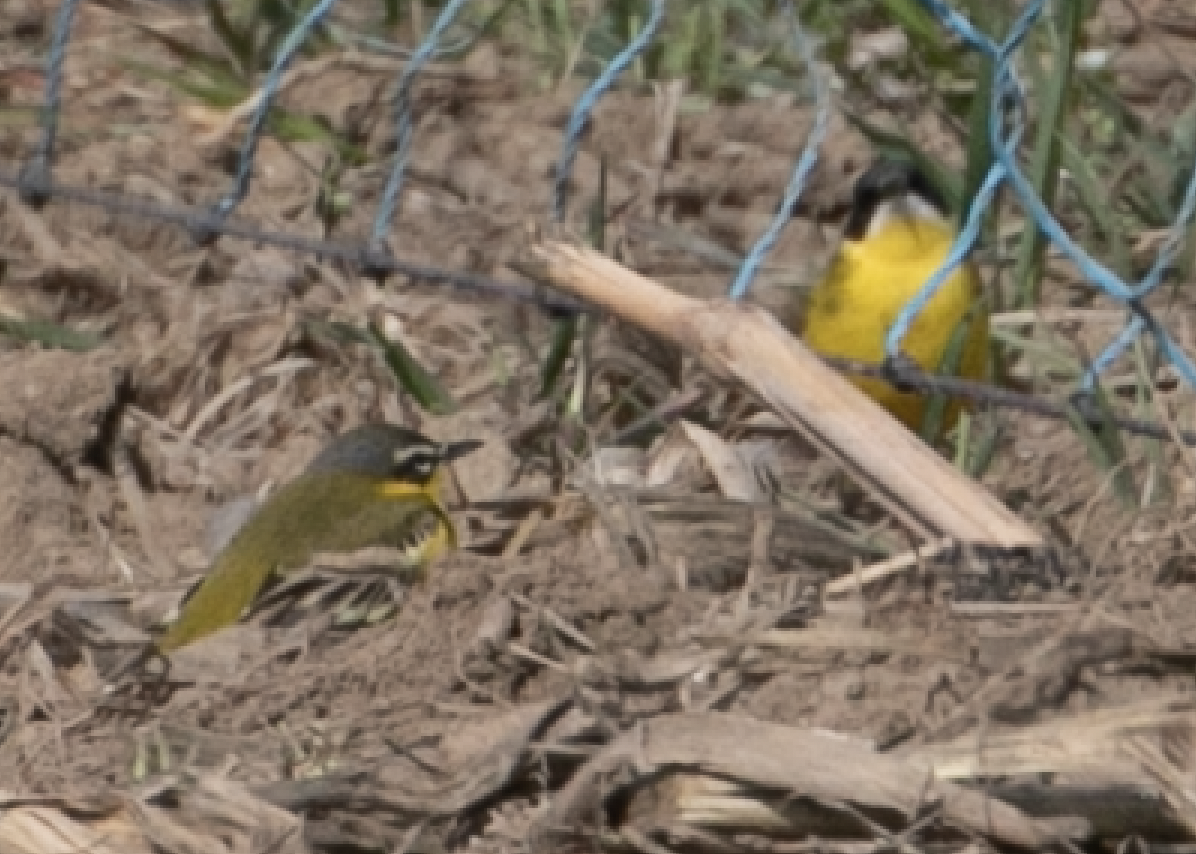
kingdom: Animalia
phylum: Chordata
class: Aves
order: Passeriformes
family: Motacillidae
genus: Motacilla
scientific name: Motacilla flava
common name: Western yellow wagtail
